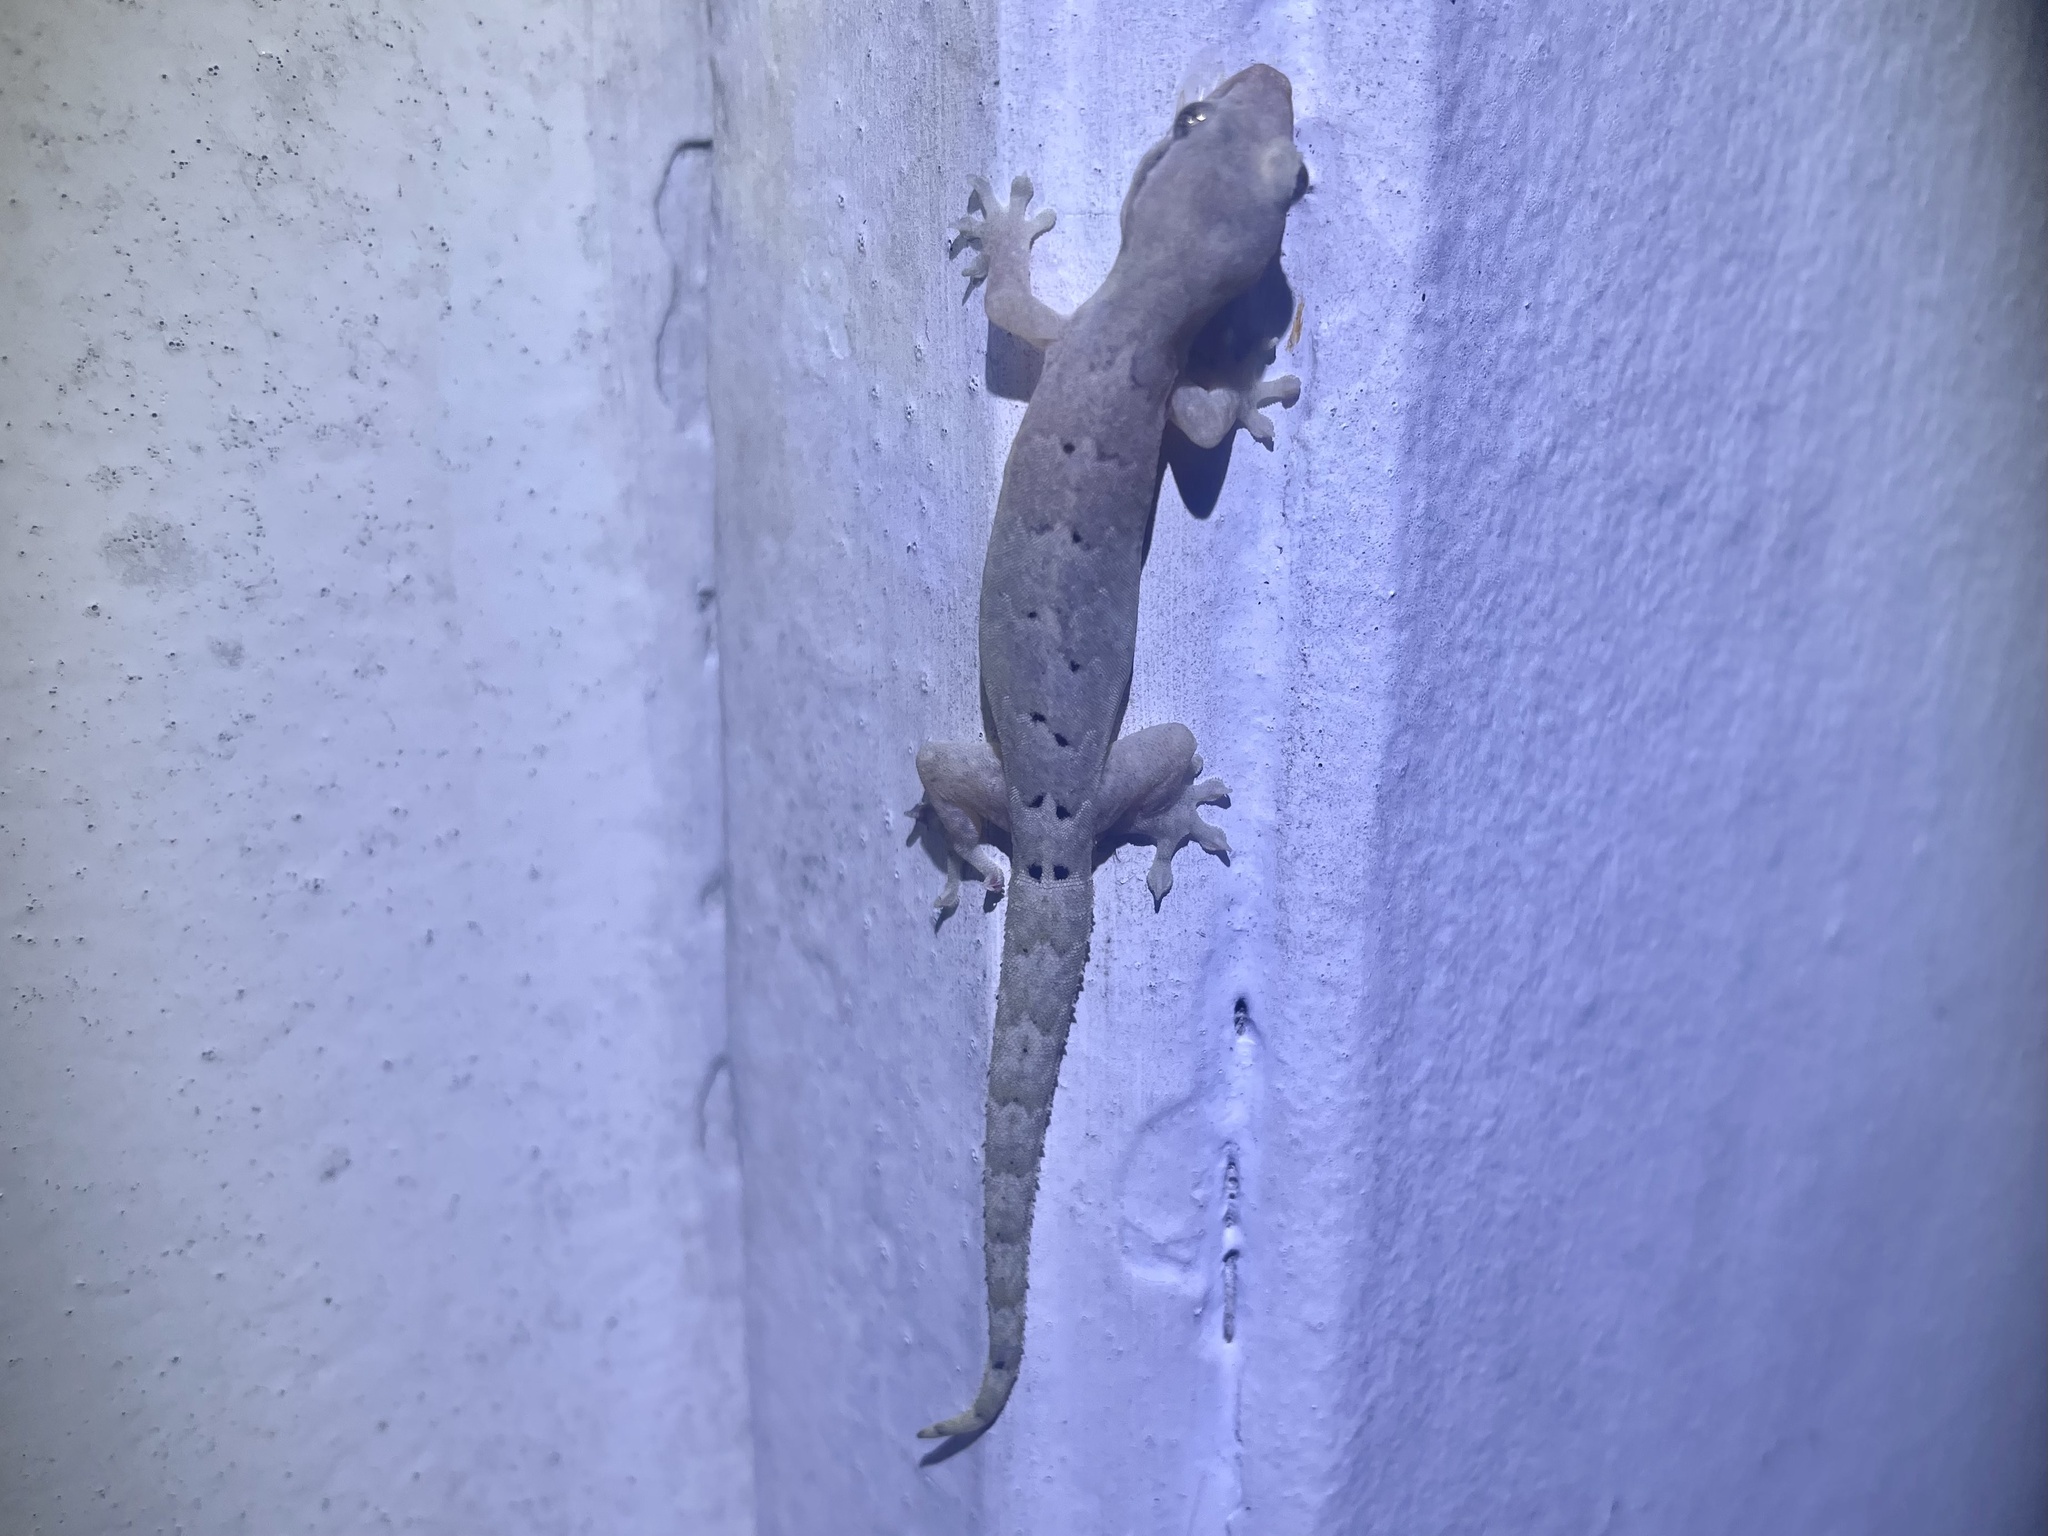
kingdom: Animalia
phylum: Chordata
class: Squamata
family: Gekkonidae
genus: Lepidodactylus
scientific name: Lepidodactylus lugubris
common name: Mourning gecko
